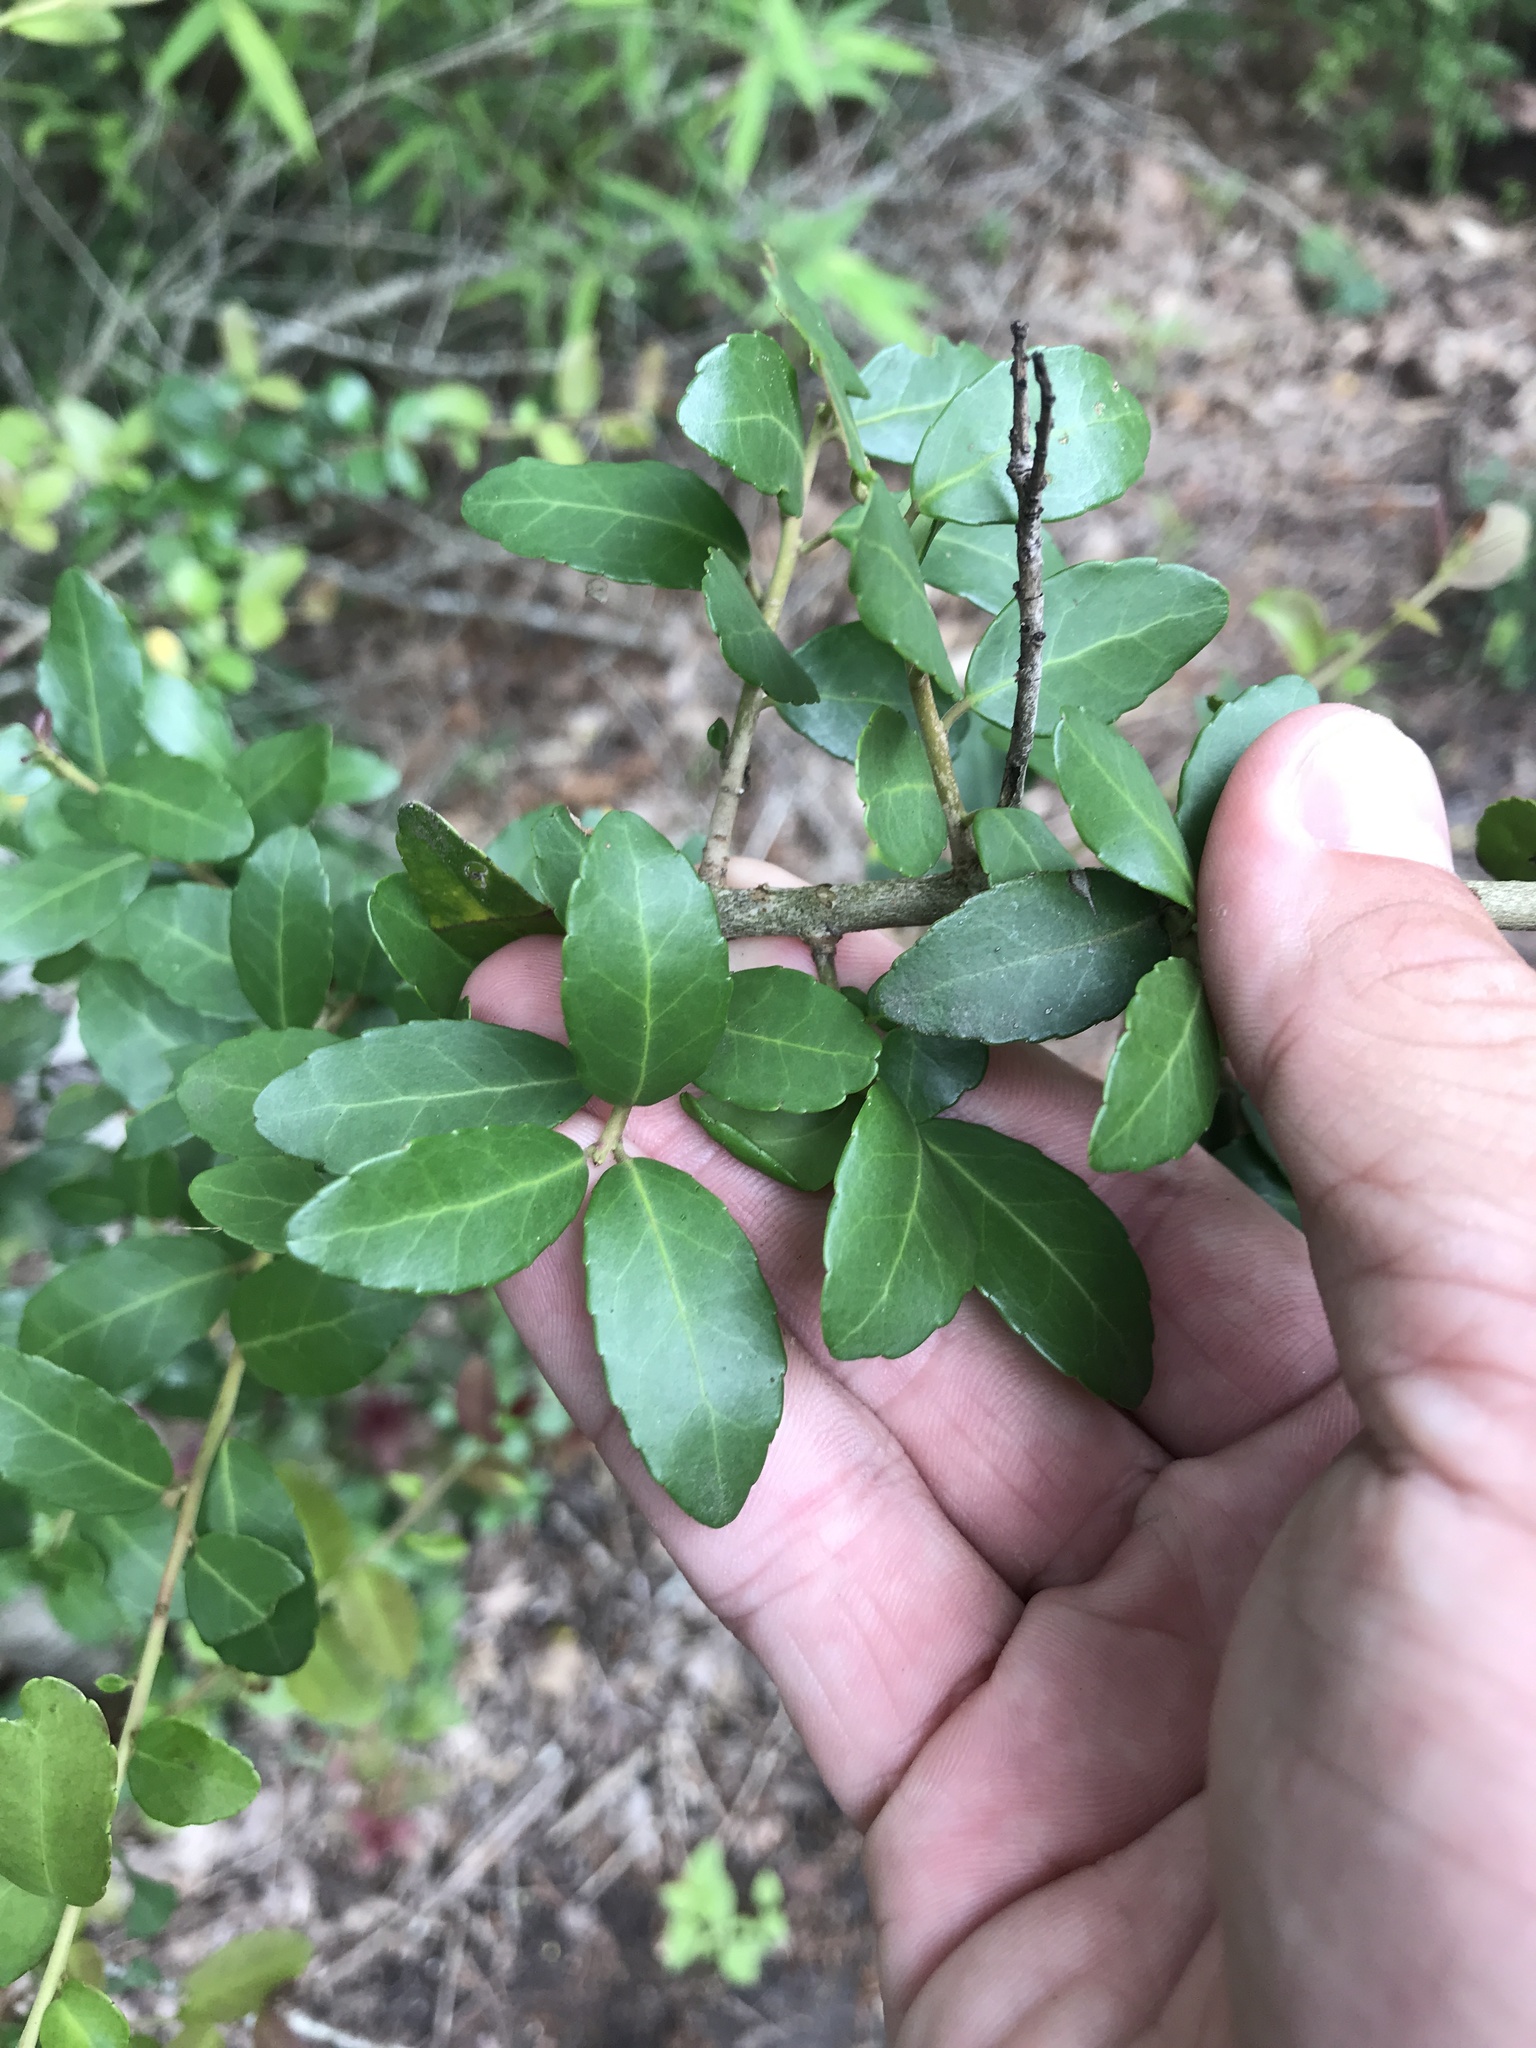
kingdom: Plantae
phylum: Tracheophyta
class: Magnoliopsida
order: Aquifoliales
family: Aquifoliaceae
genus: Ilex
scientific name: Ilex vomitoria
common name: Yaupon holly
